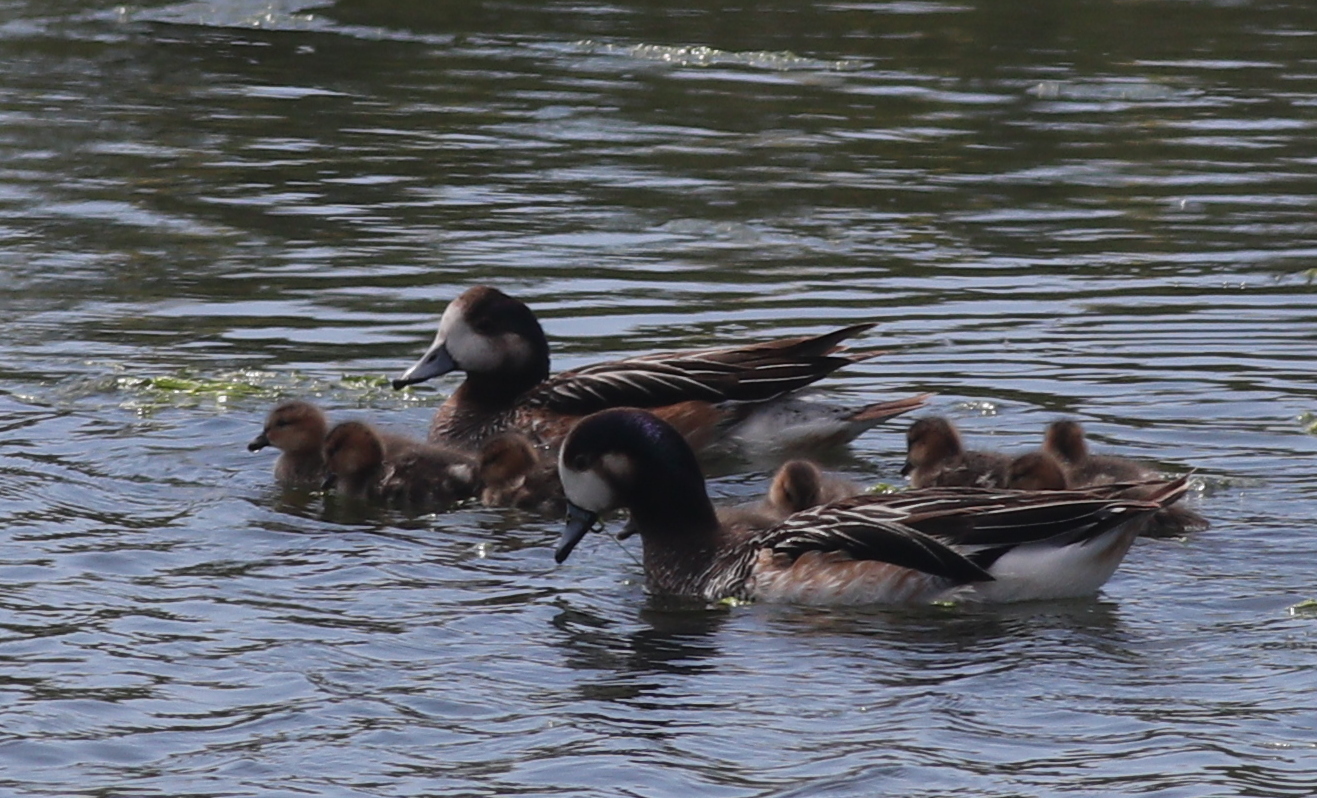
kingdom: Animalia
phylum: Chordata
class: Aves
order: Anseriformes
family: Anatidae
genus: Mareca
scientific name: Mareca sibilatrix
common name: Chiloe wigeon
